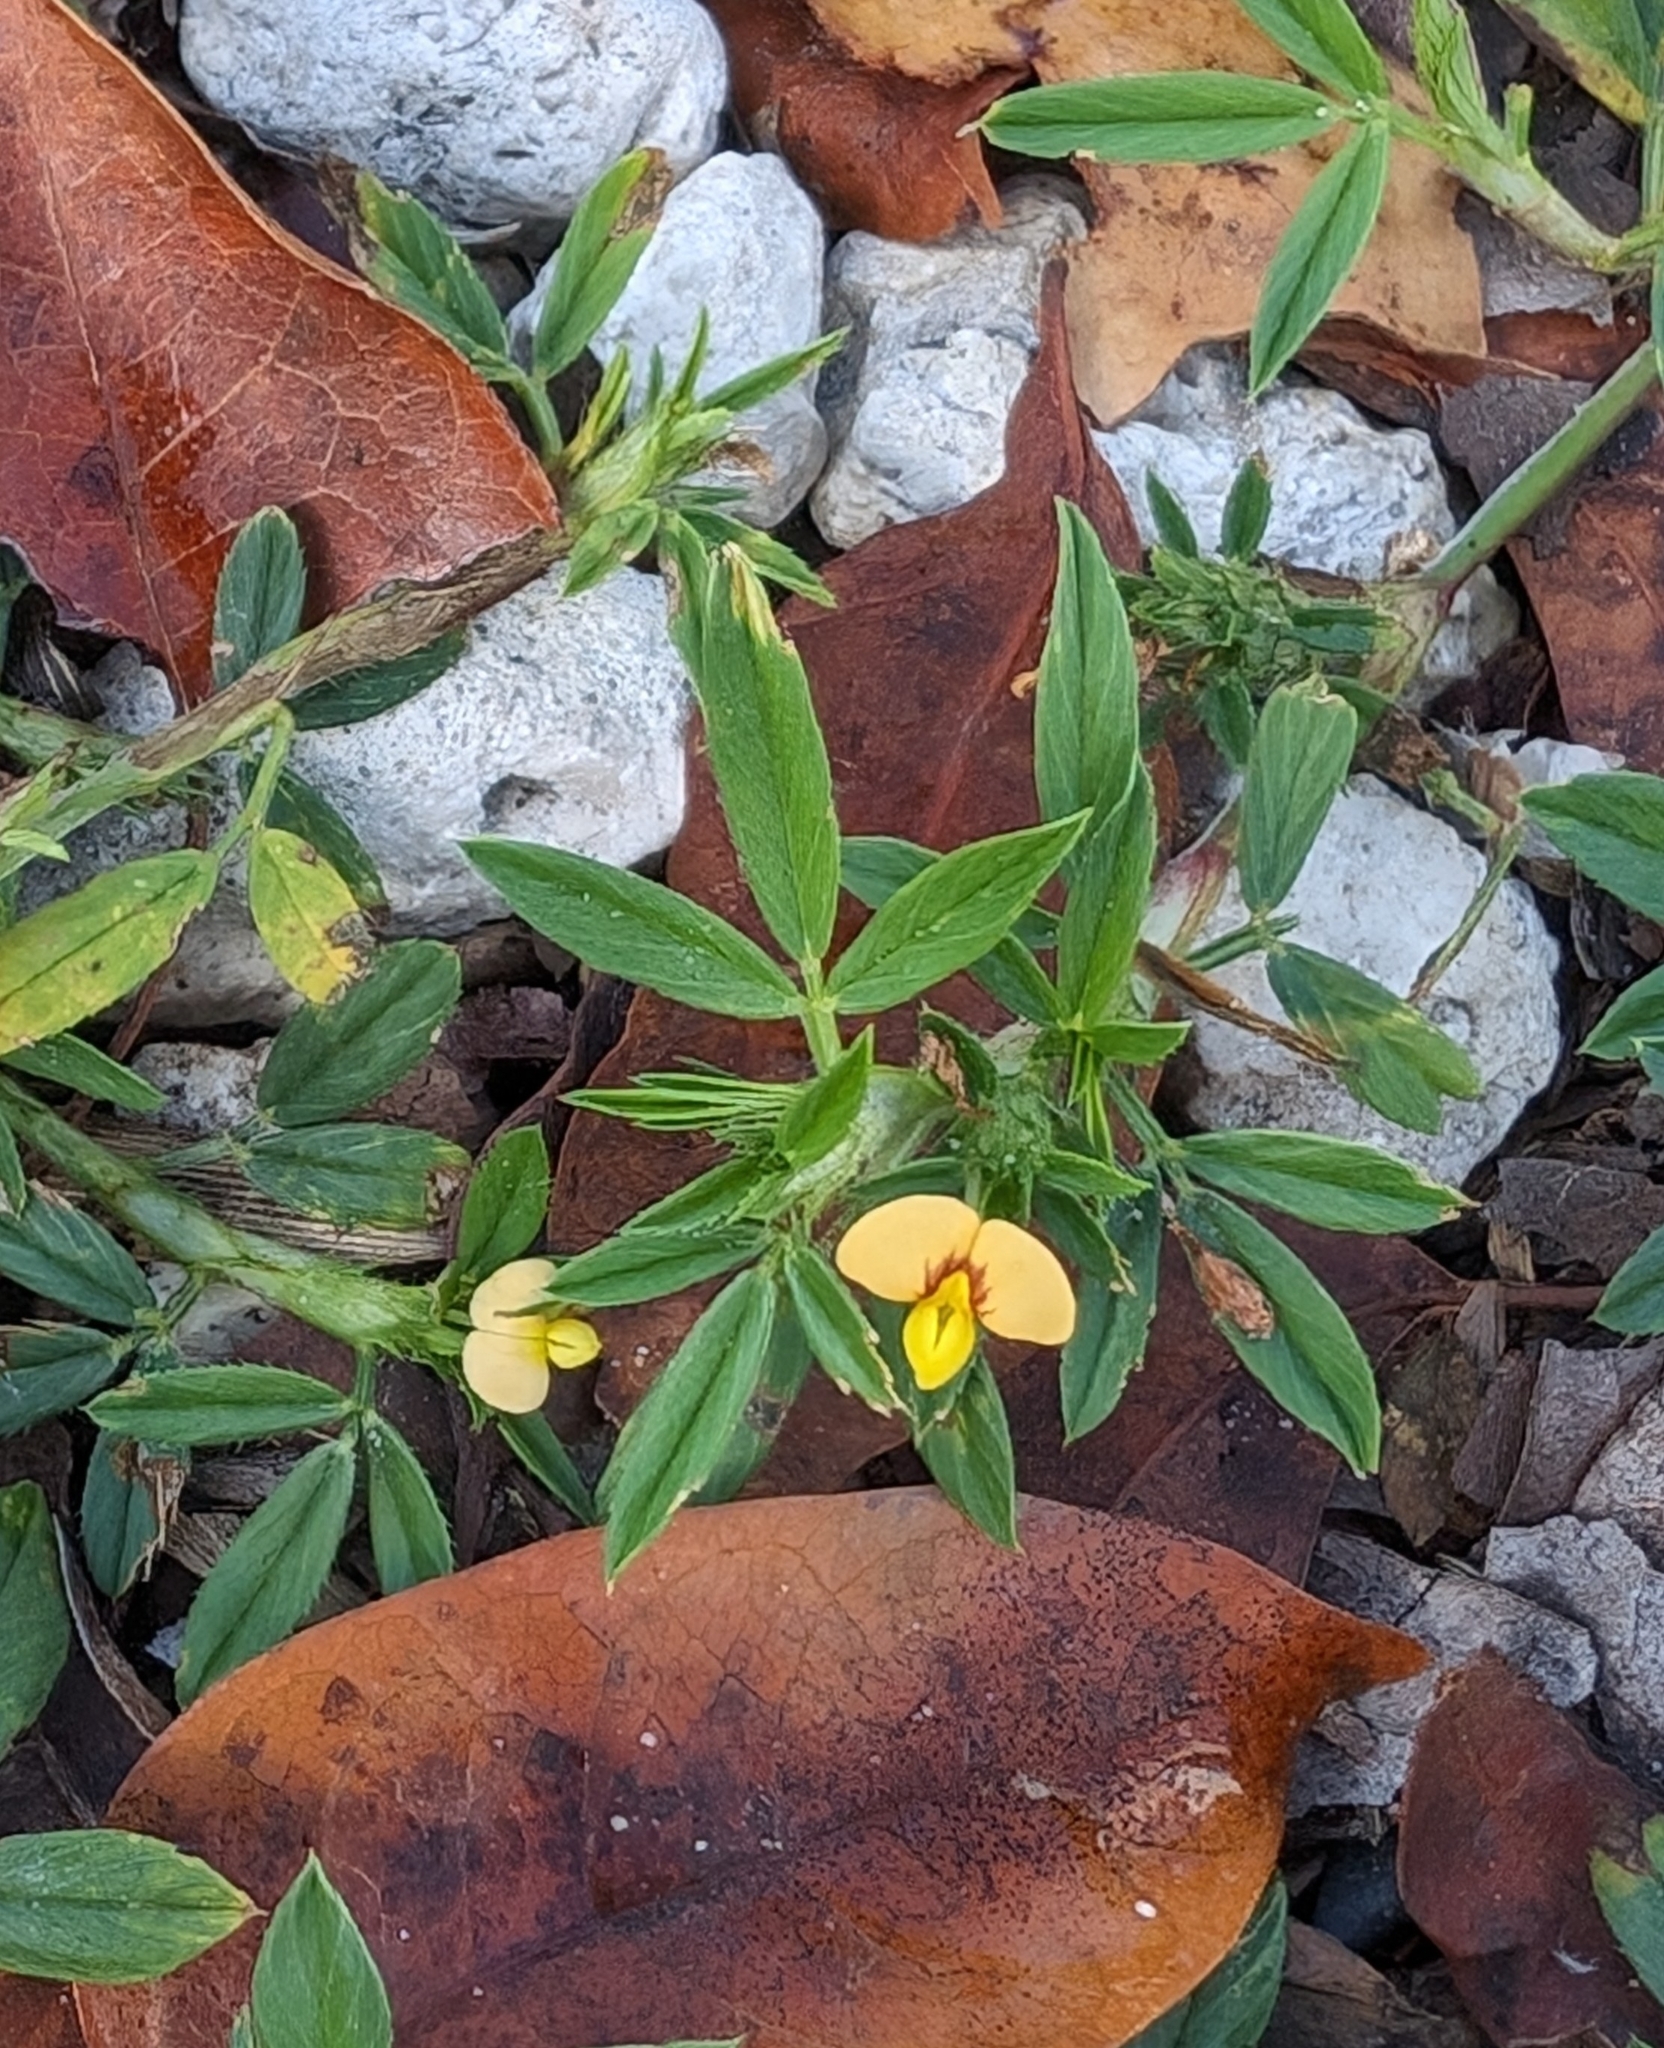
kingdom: Plantae
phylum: Tracheophyta
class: Magnoliopsida
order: Fabales
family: Fabaceae
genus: Stylosanthes
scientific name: Stylosanthes hamata
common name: Cheesytoes
